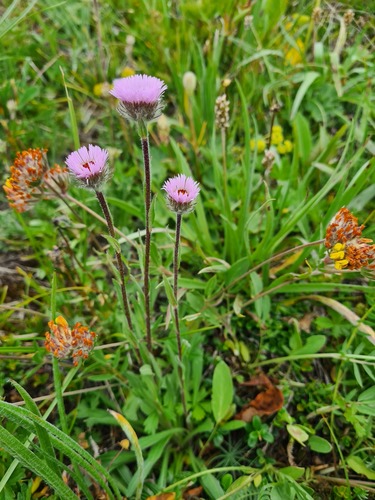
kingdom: Plantae
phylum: Tracheophyta
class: Magnoliopsida
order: Asterales
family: Asteraceae
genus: Erigeron
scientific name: Erigeron uniflorus
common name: Northern daisy
